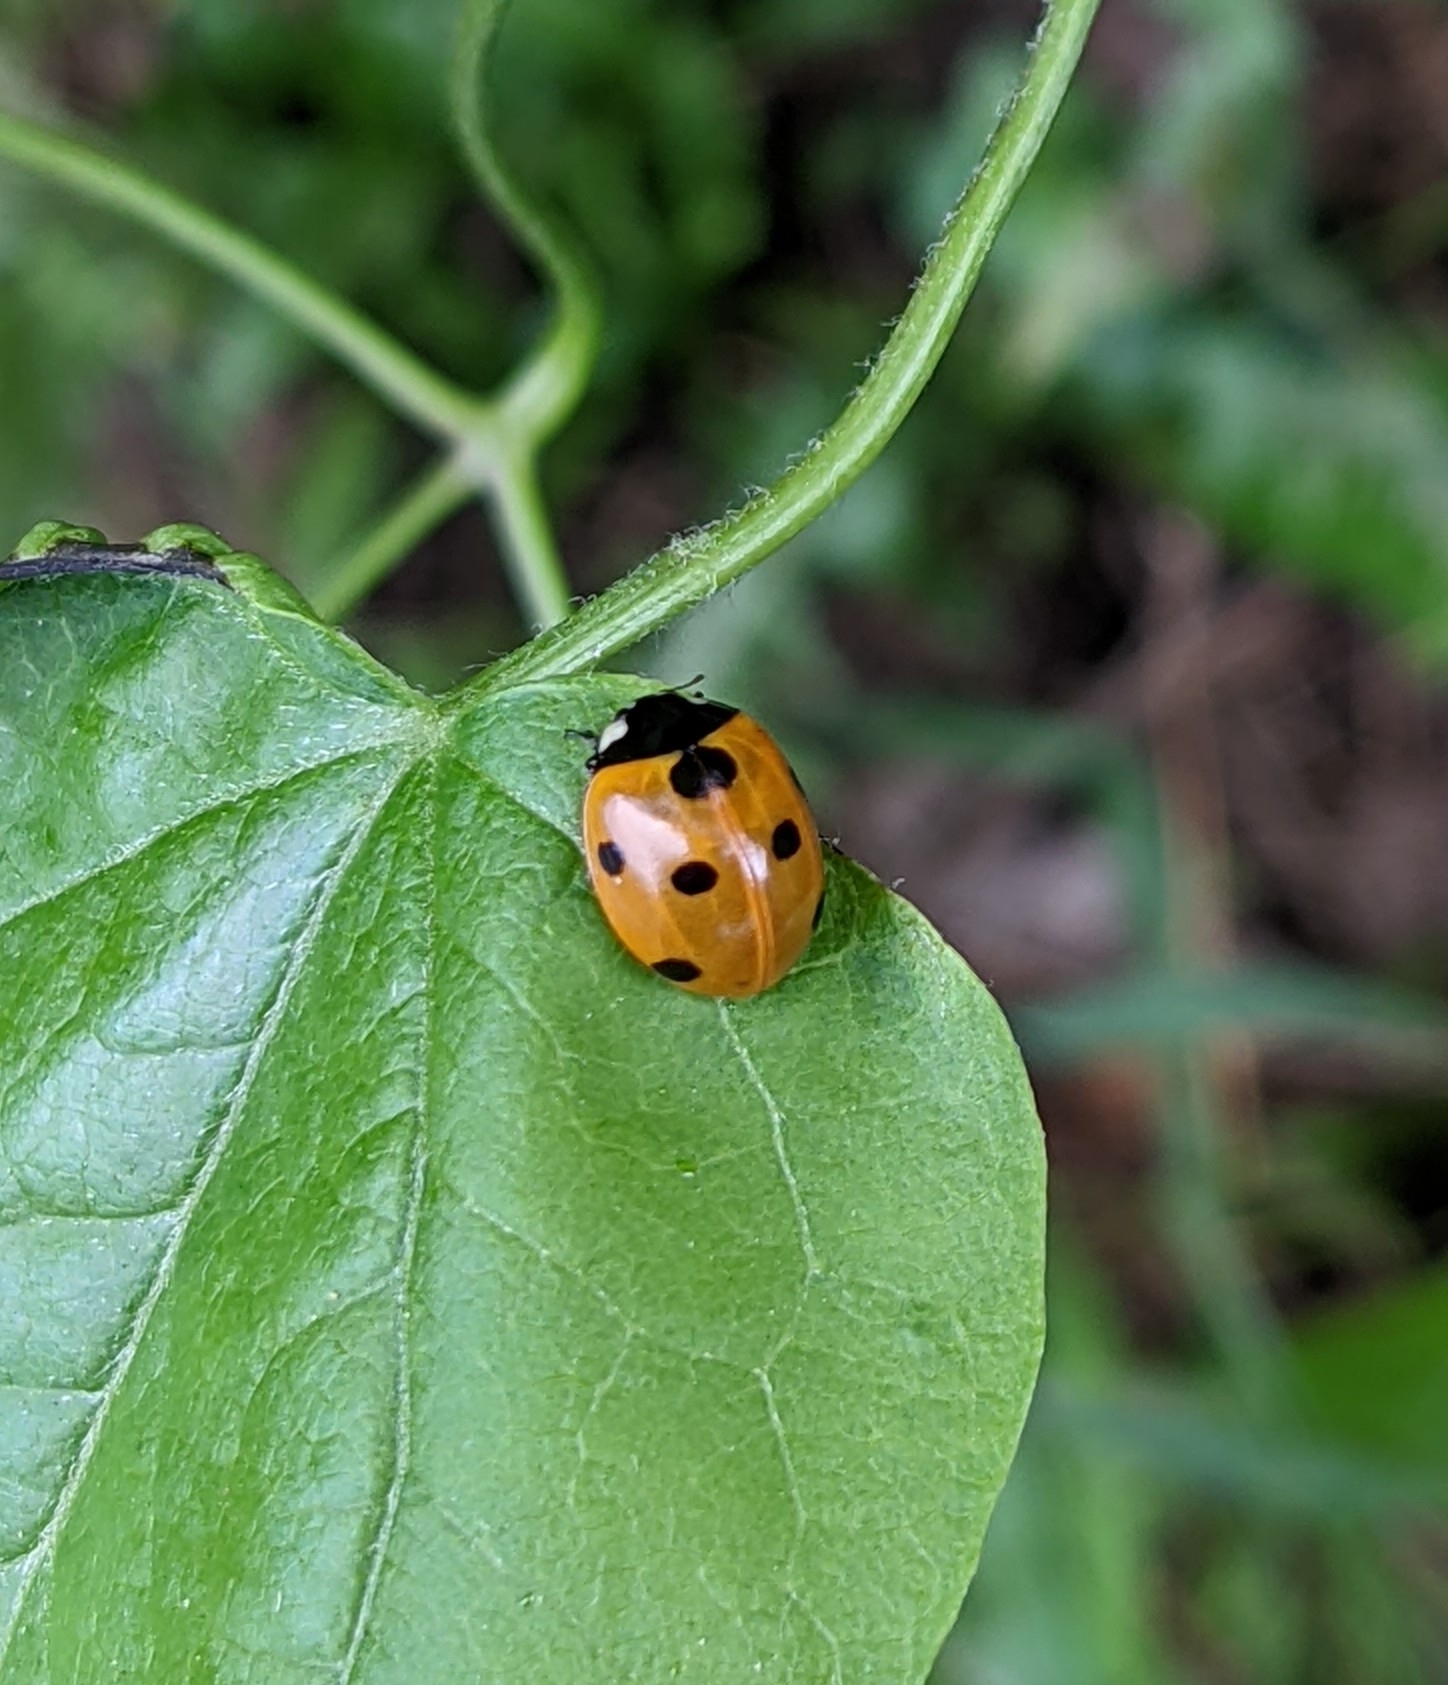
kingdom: Animalia
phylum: Arthropoda
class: Insecta
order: Coleoptera
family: Coccinellidae
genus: Coccinella
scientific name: Coccinella septempunctata
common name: Sevenspotted lady beetle
